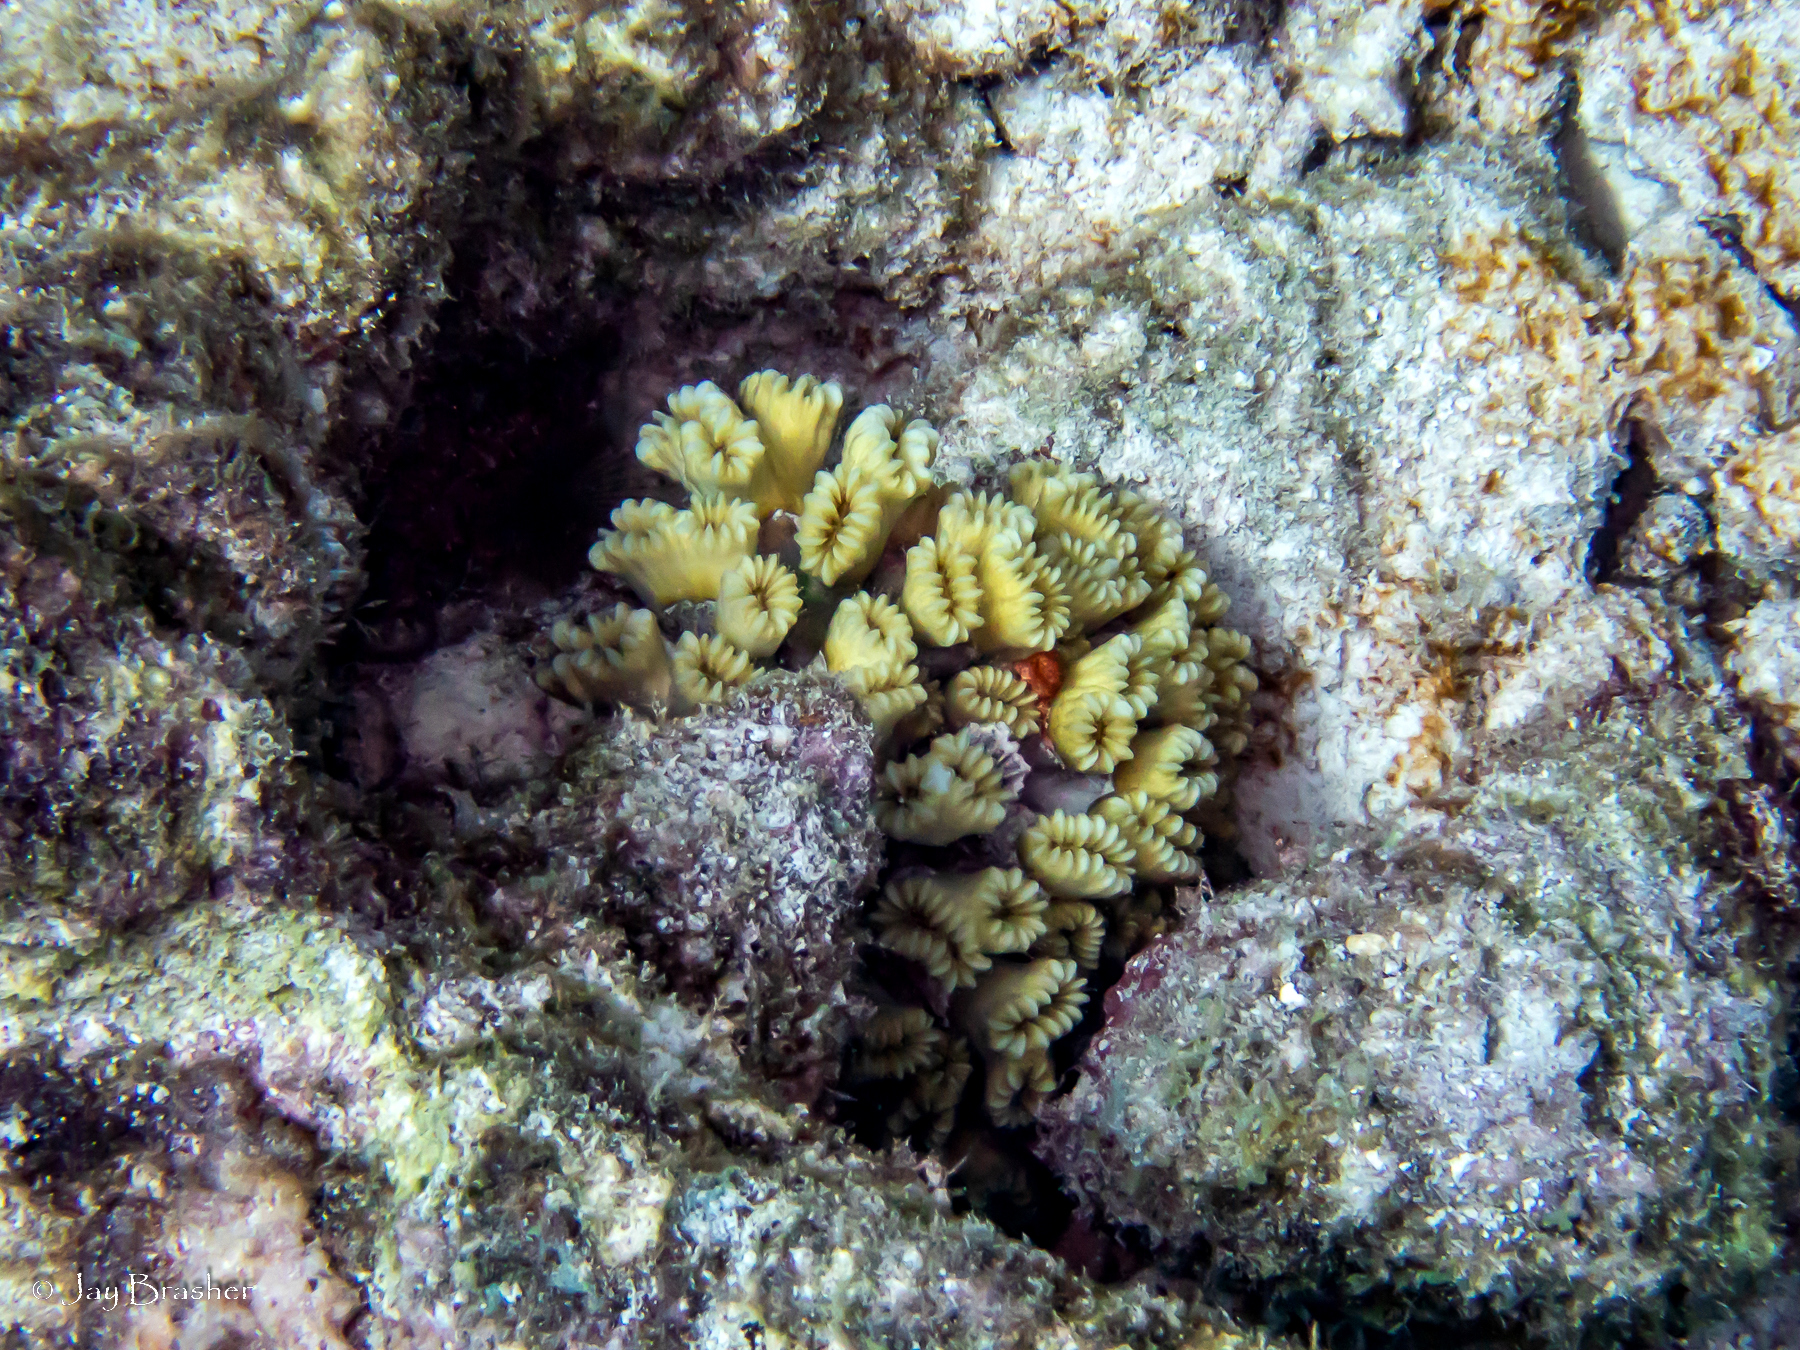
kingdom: Animalia
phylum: Cnidaria
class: Anthozoa
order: Scleractinia
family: Meandrinidae
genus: Eusmilia
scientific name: Eusmilia fastigiata
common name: Smooth flower coral
